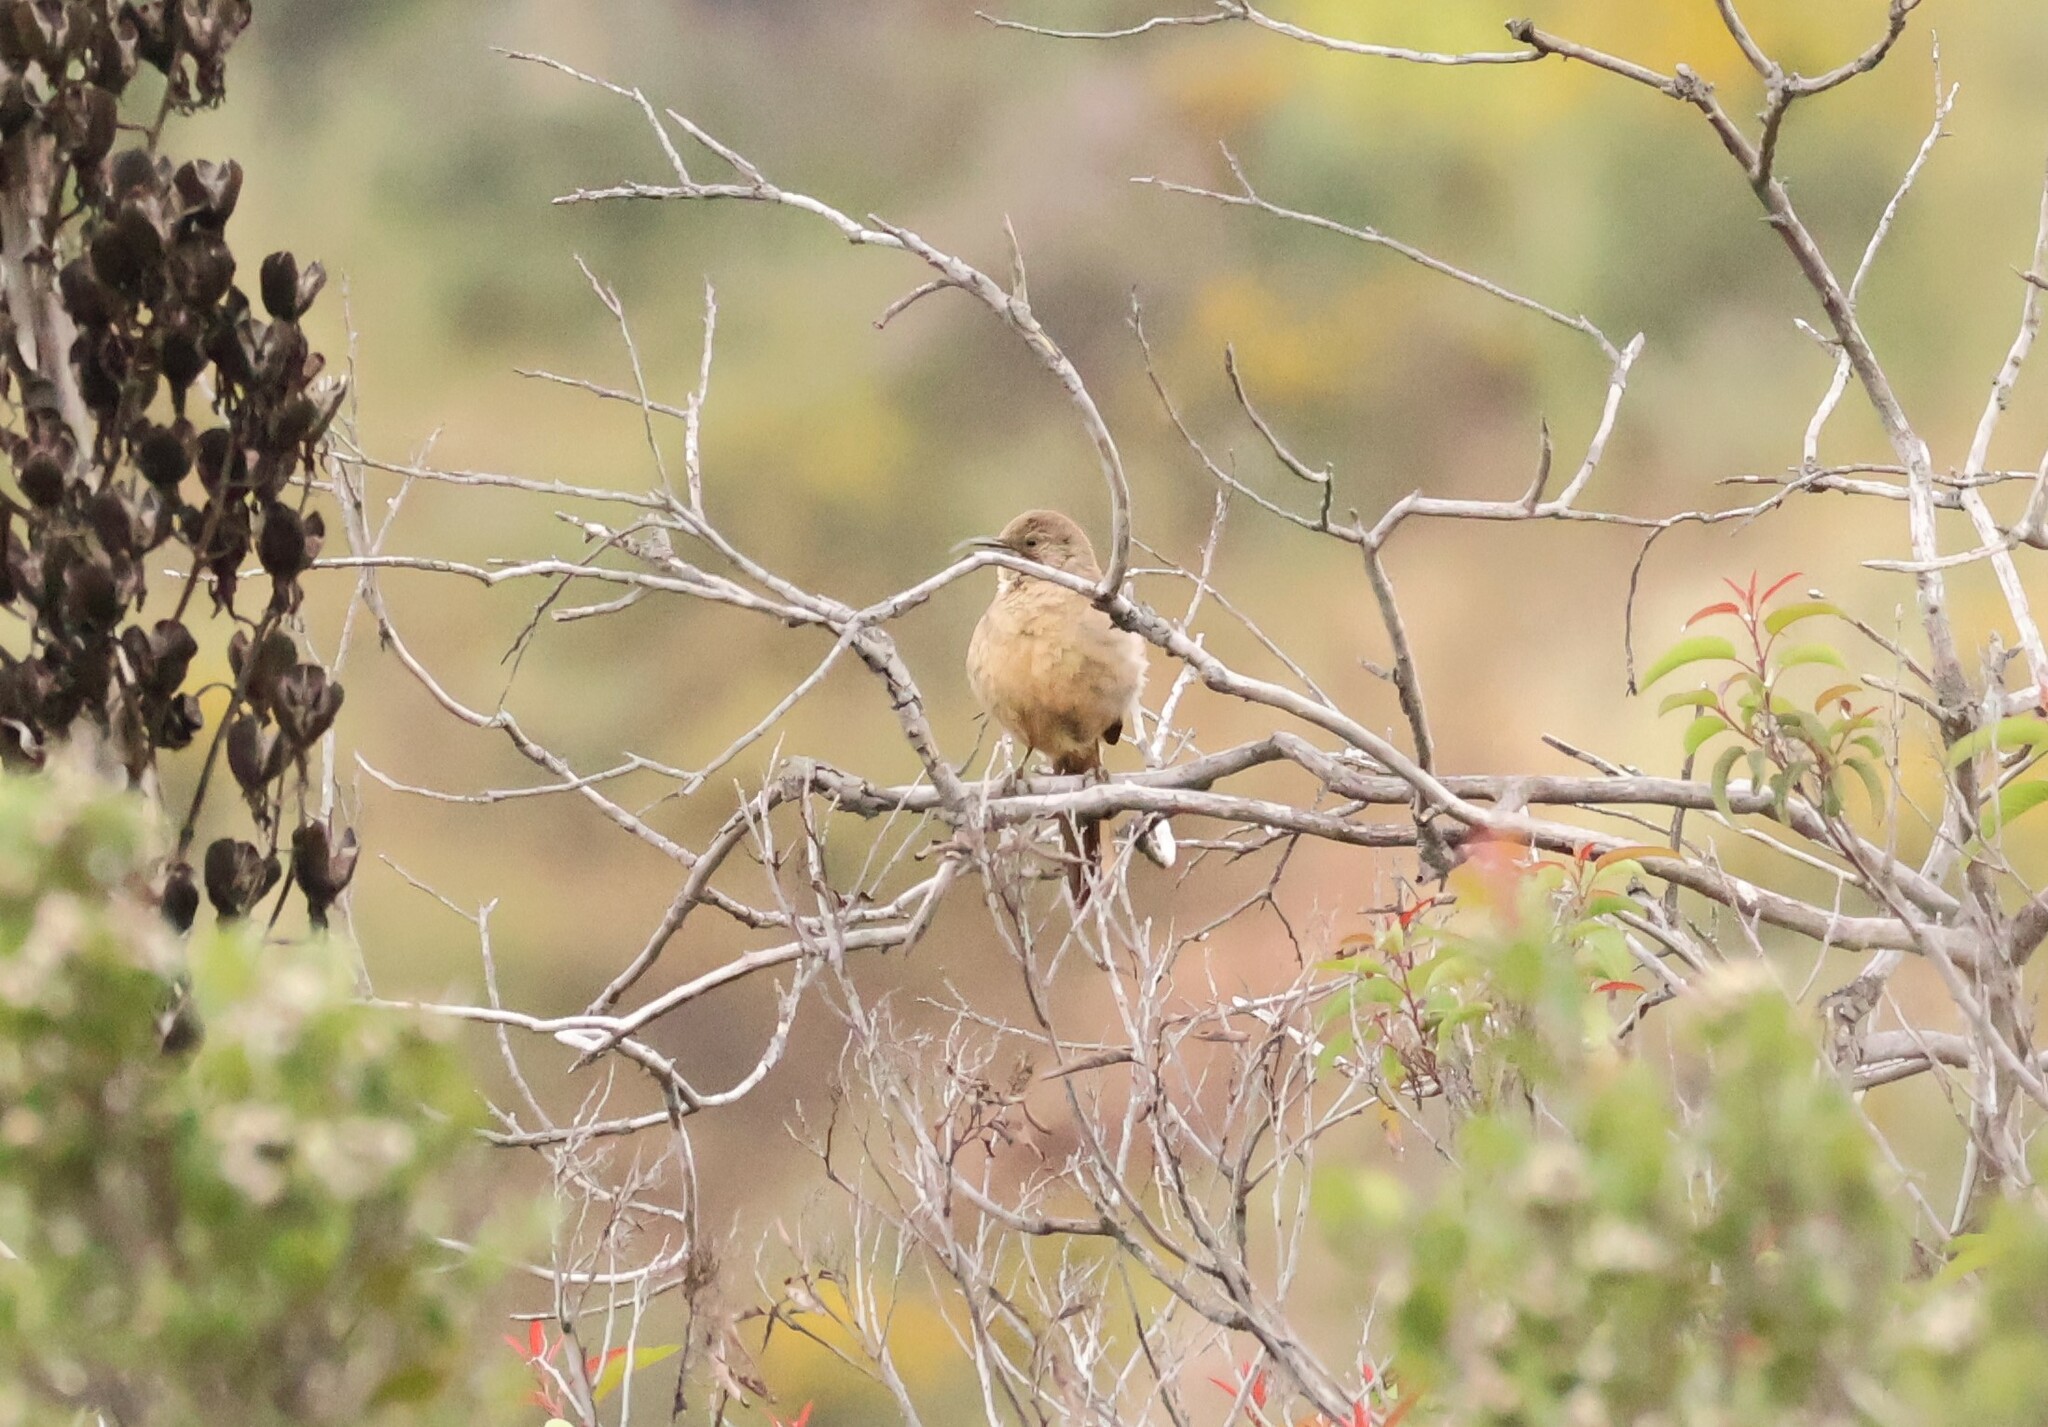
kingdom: Animalia
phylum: Chordata
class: Aves
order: Passeriformes
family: Mimidae
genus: Toxostoma
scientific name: Toxostoma redivivum
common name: California thrasher
